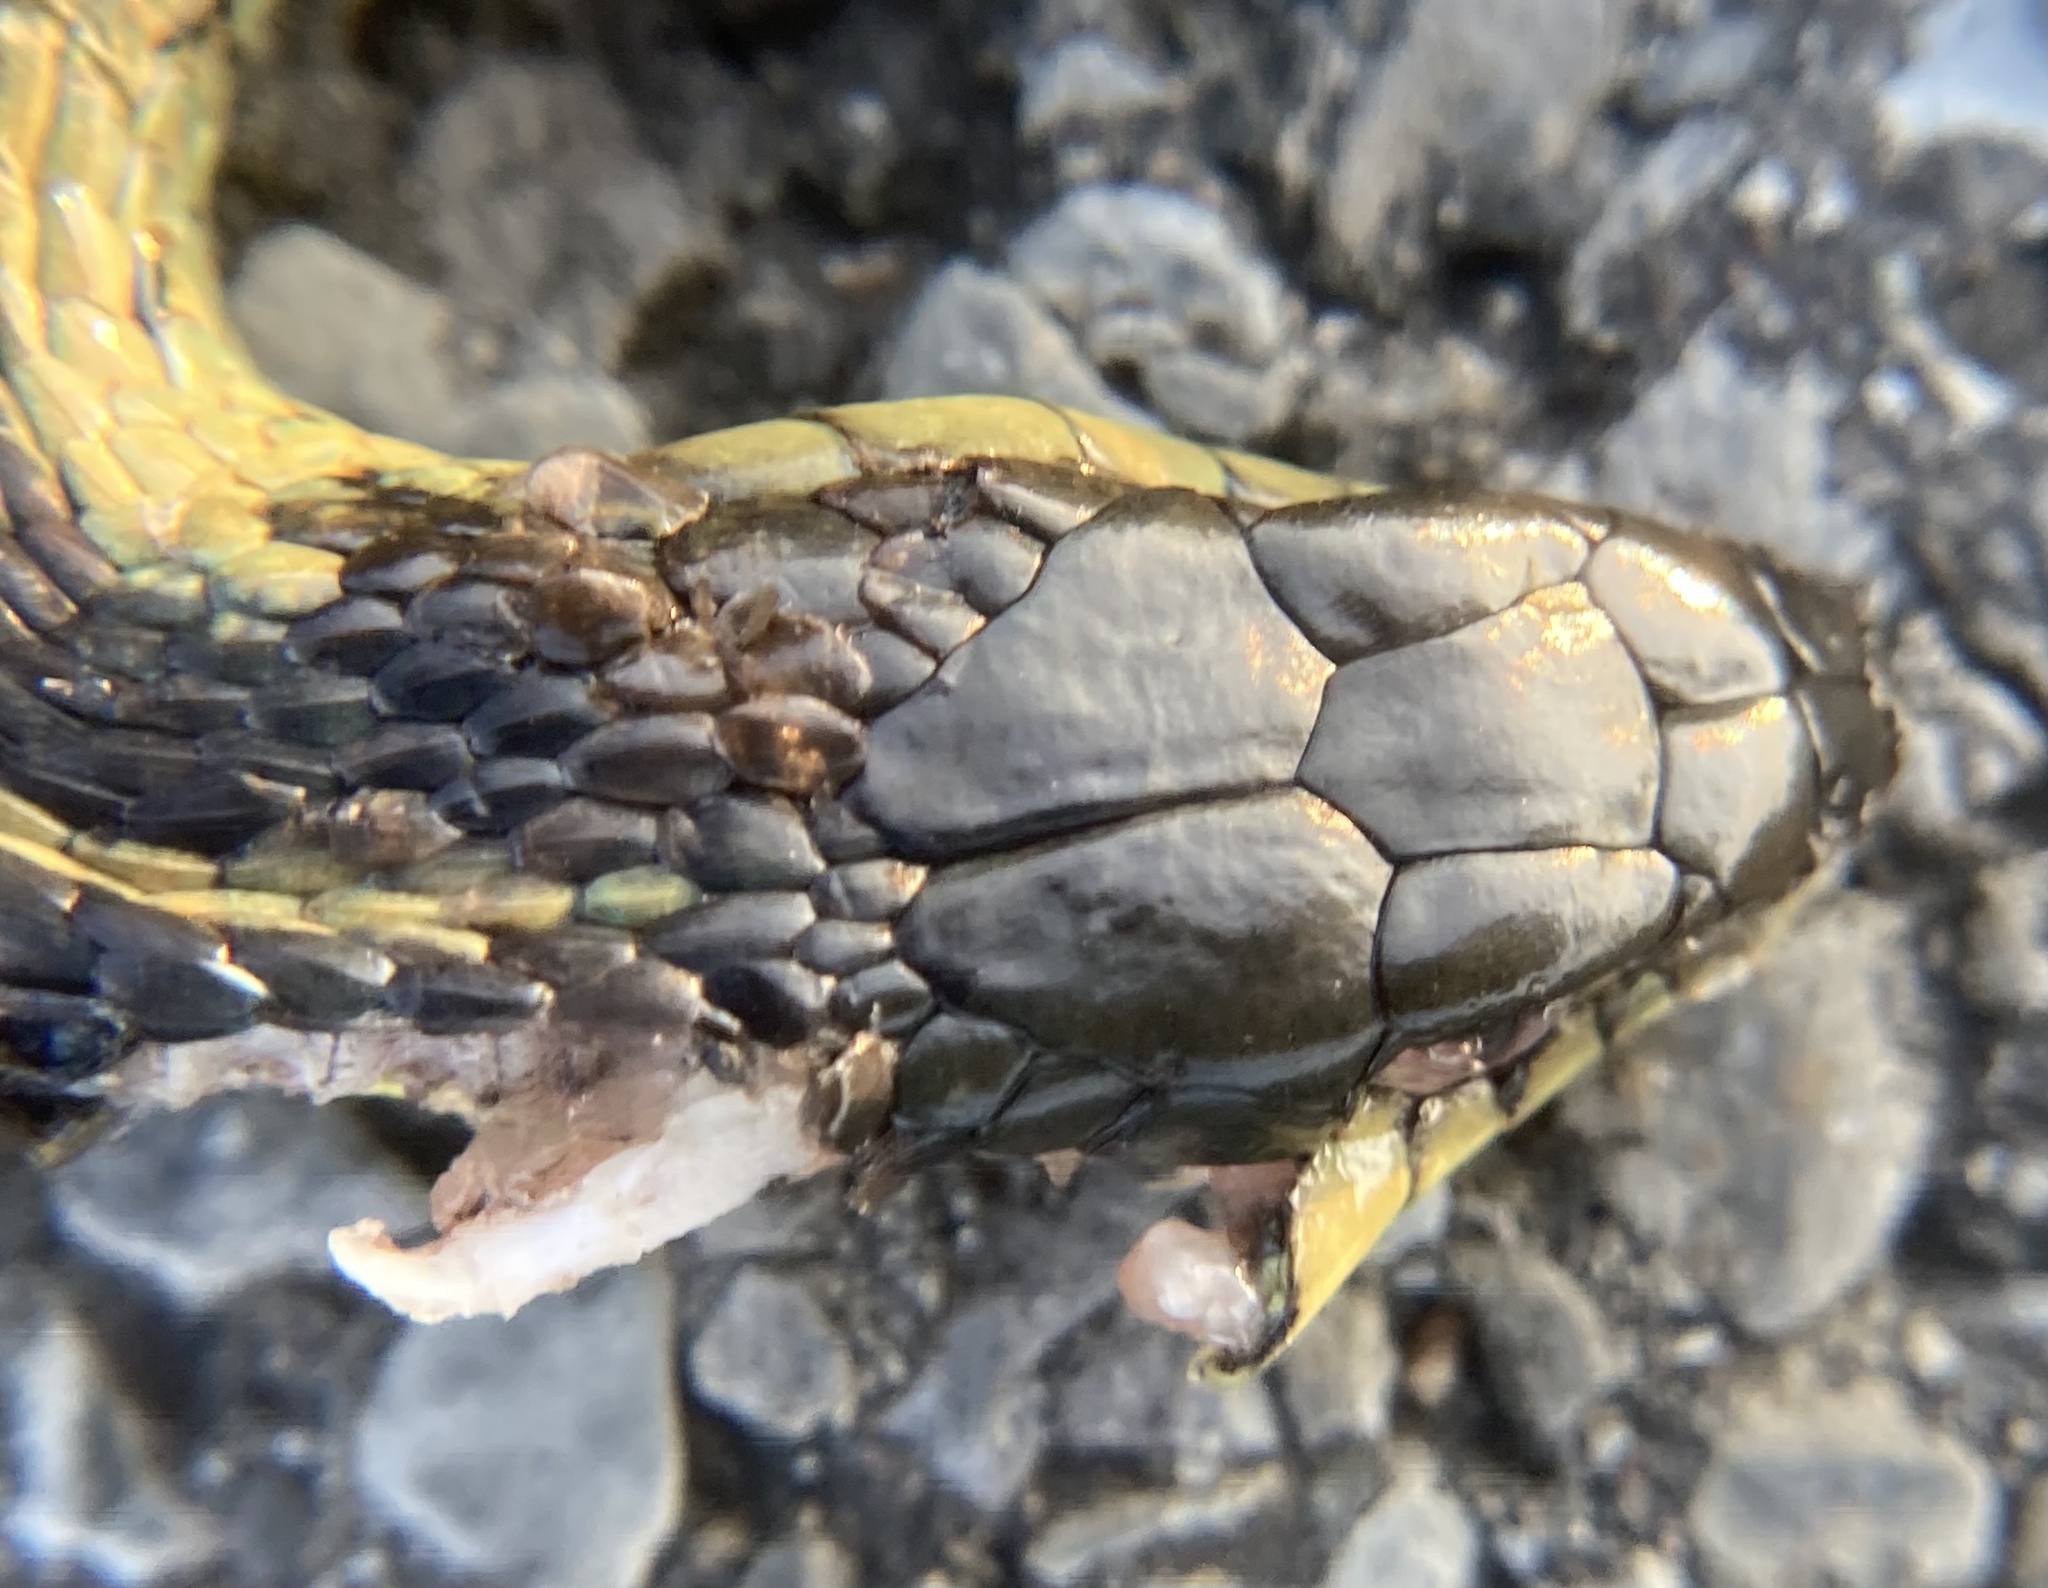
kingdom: Animalia
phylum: Chordata
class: Squamata
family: Colubridae
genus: Thamnophis
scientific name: Thamnophis sirtalis
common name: Common garter snake
